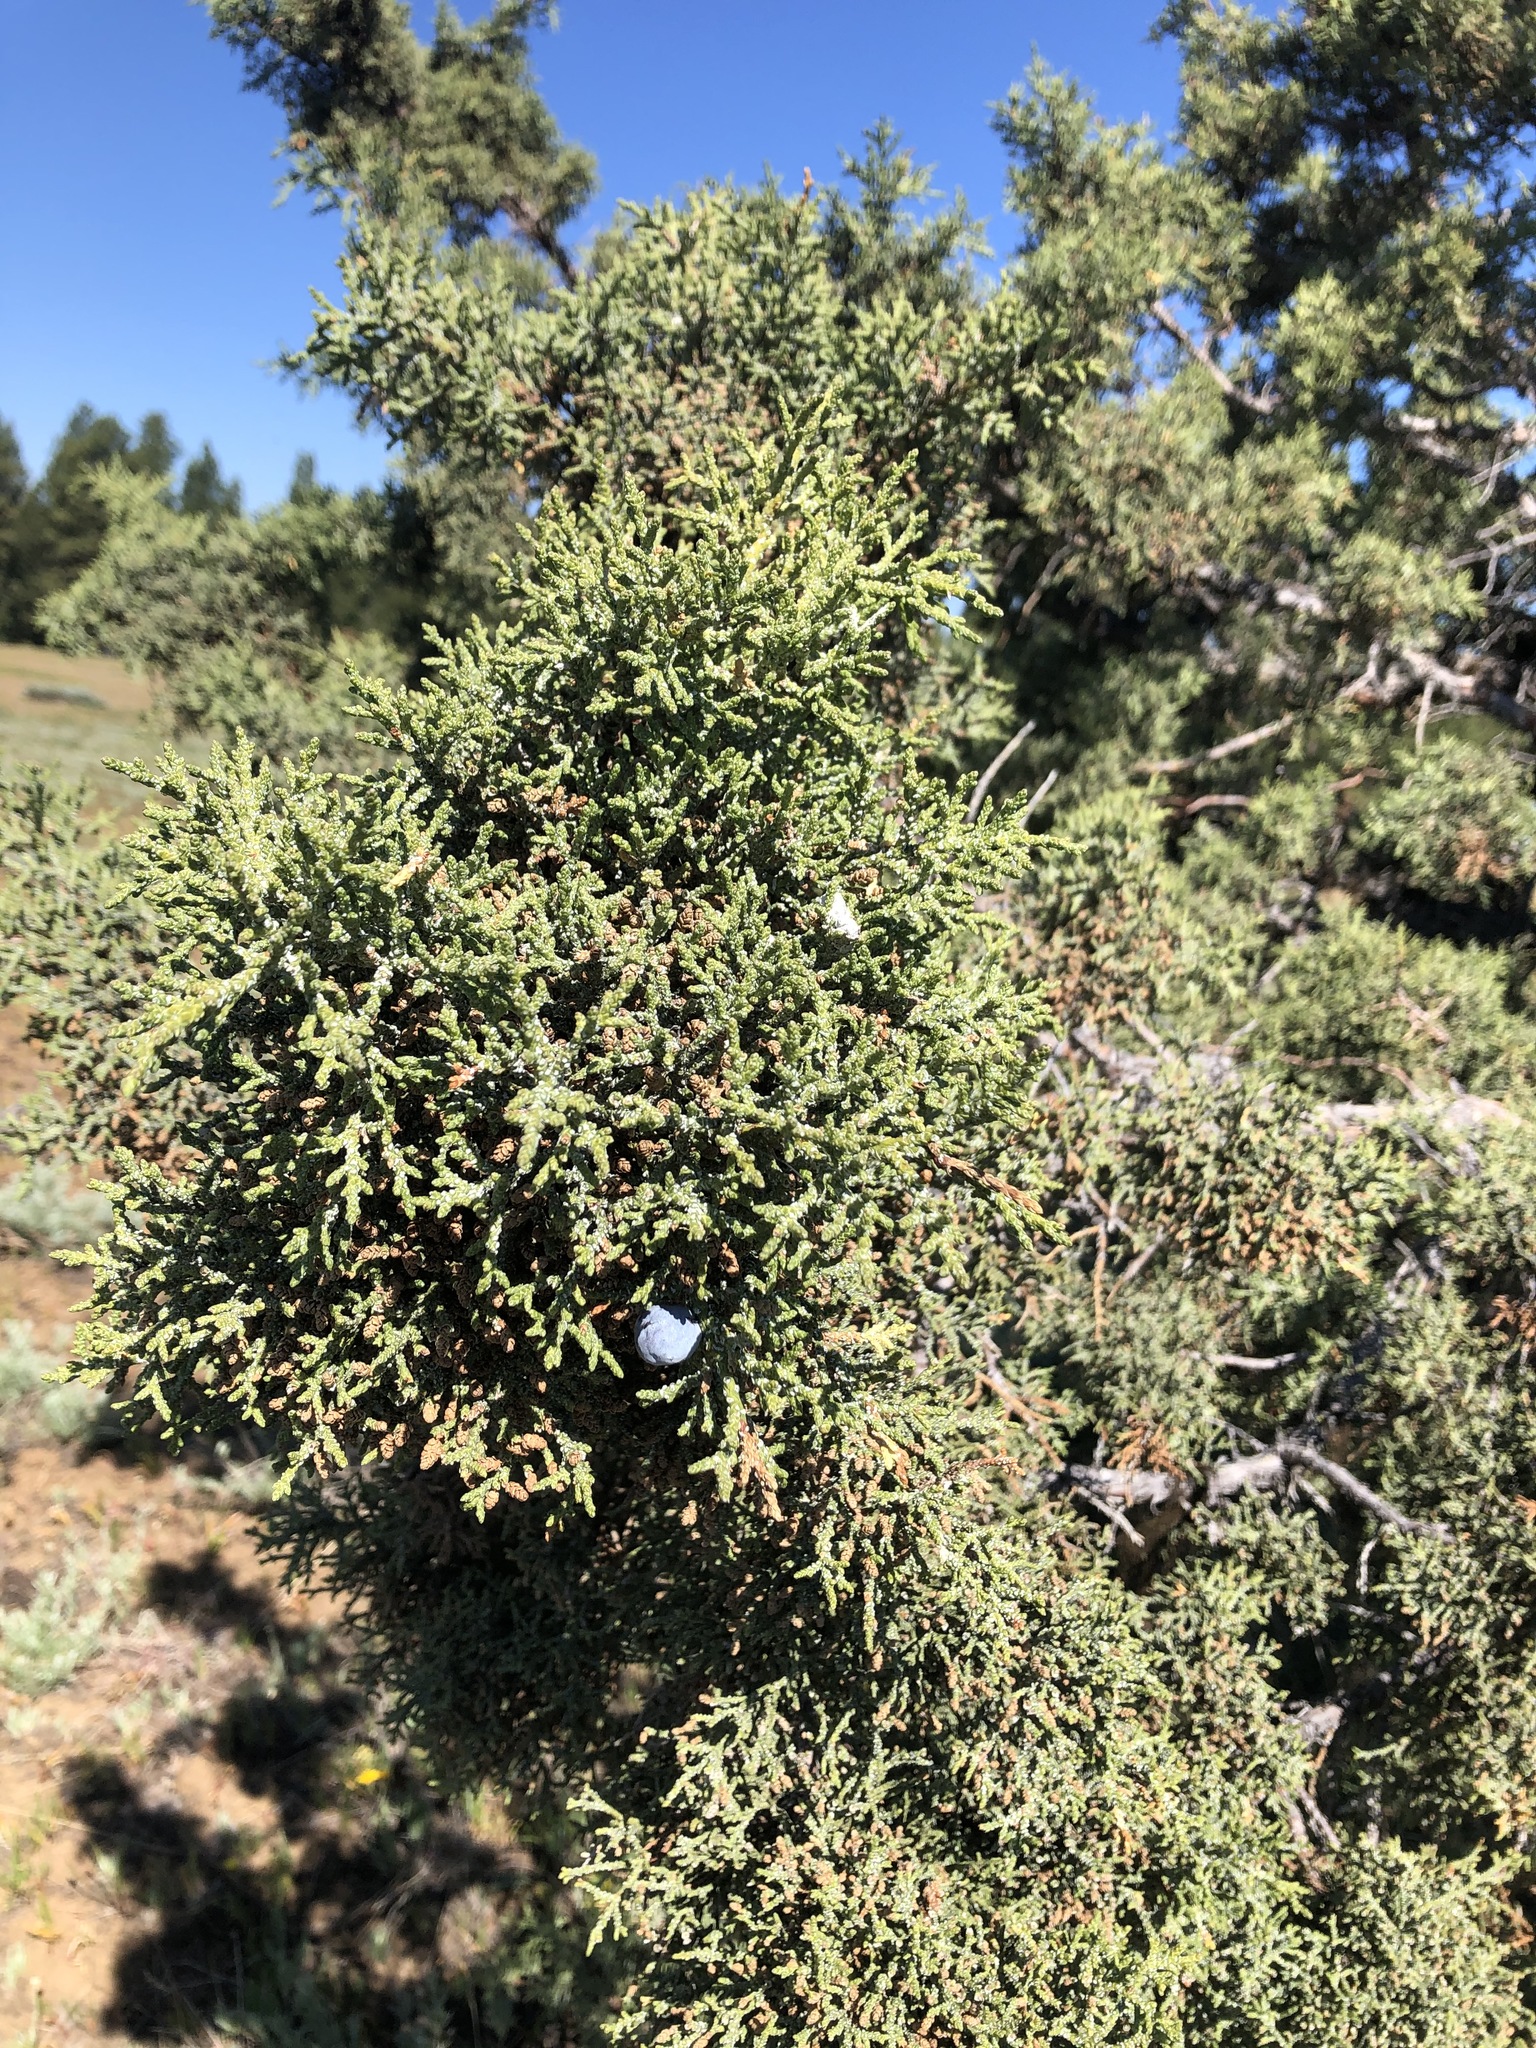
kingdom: Plantae
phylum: Tracheophyta
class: Pinopsida
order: Pinales
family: Cupressaceae
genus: Juniperus
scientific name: Juniperus occidentalis
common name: Western juniper
